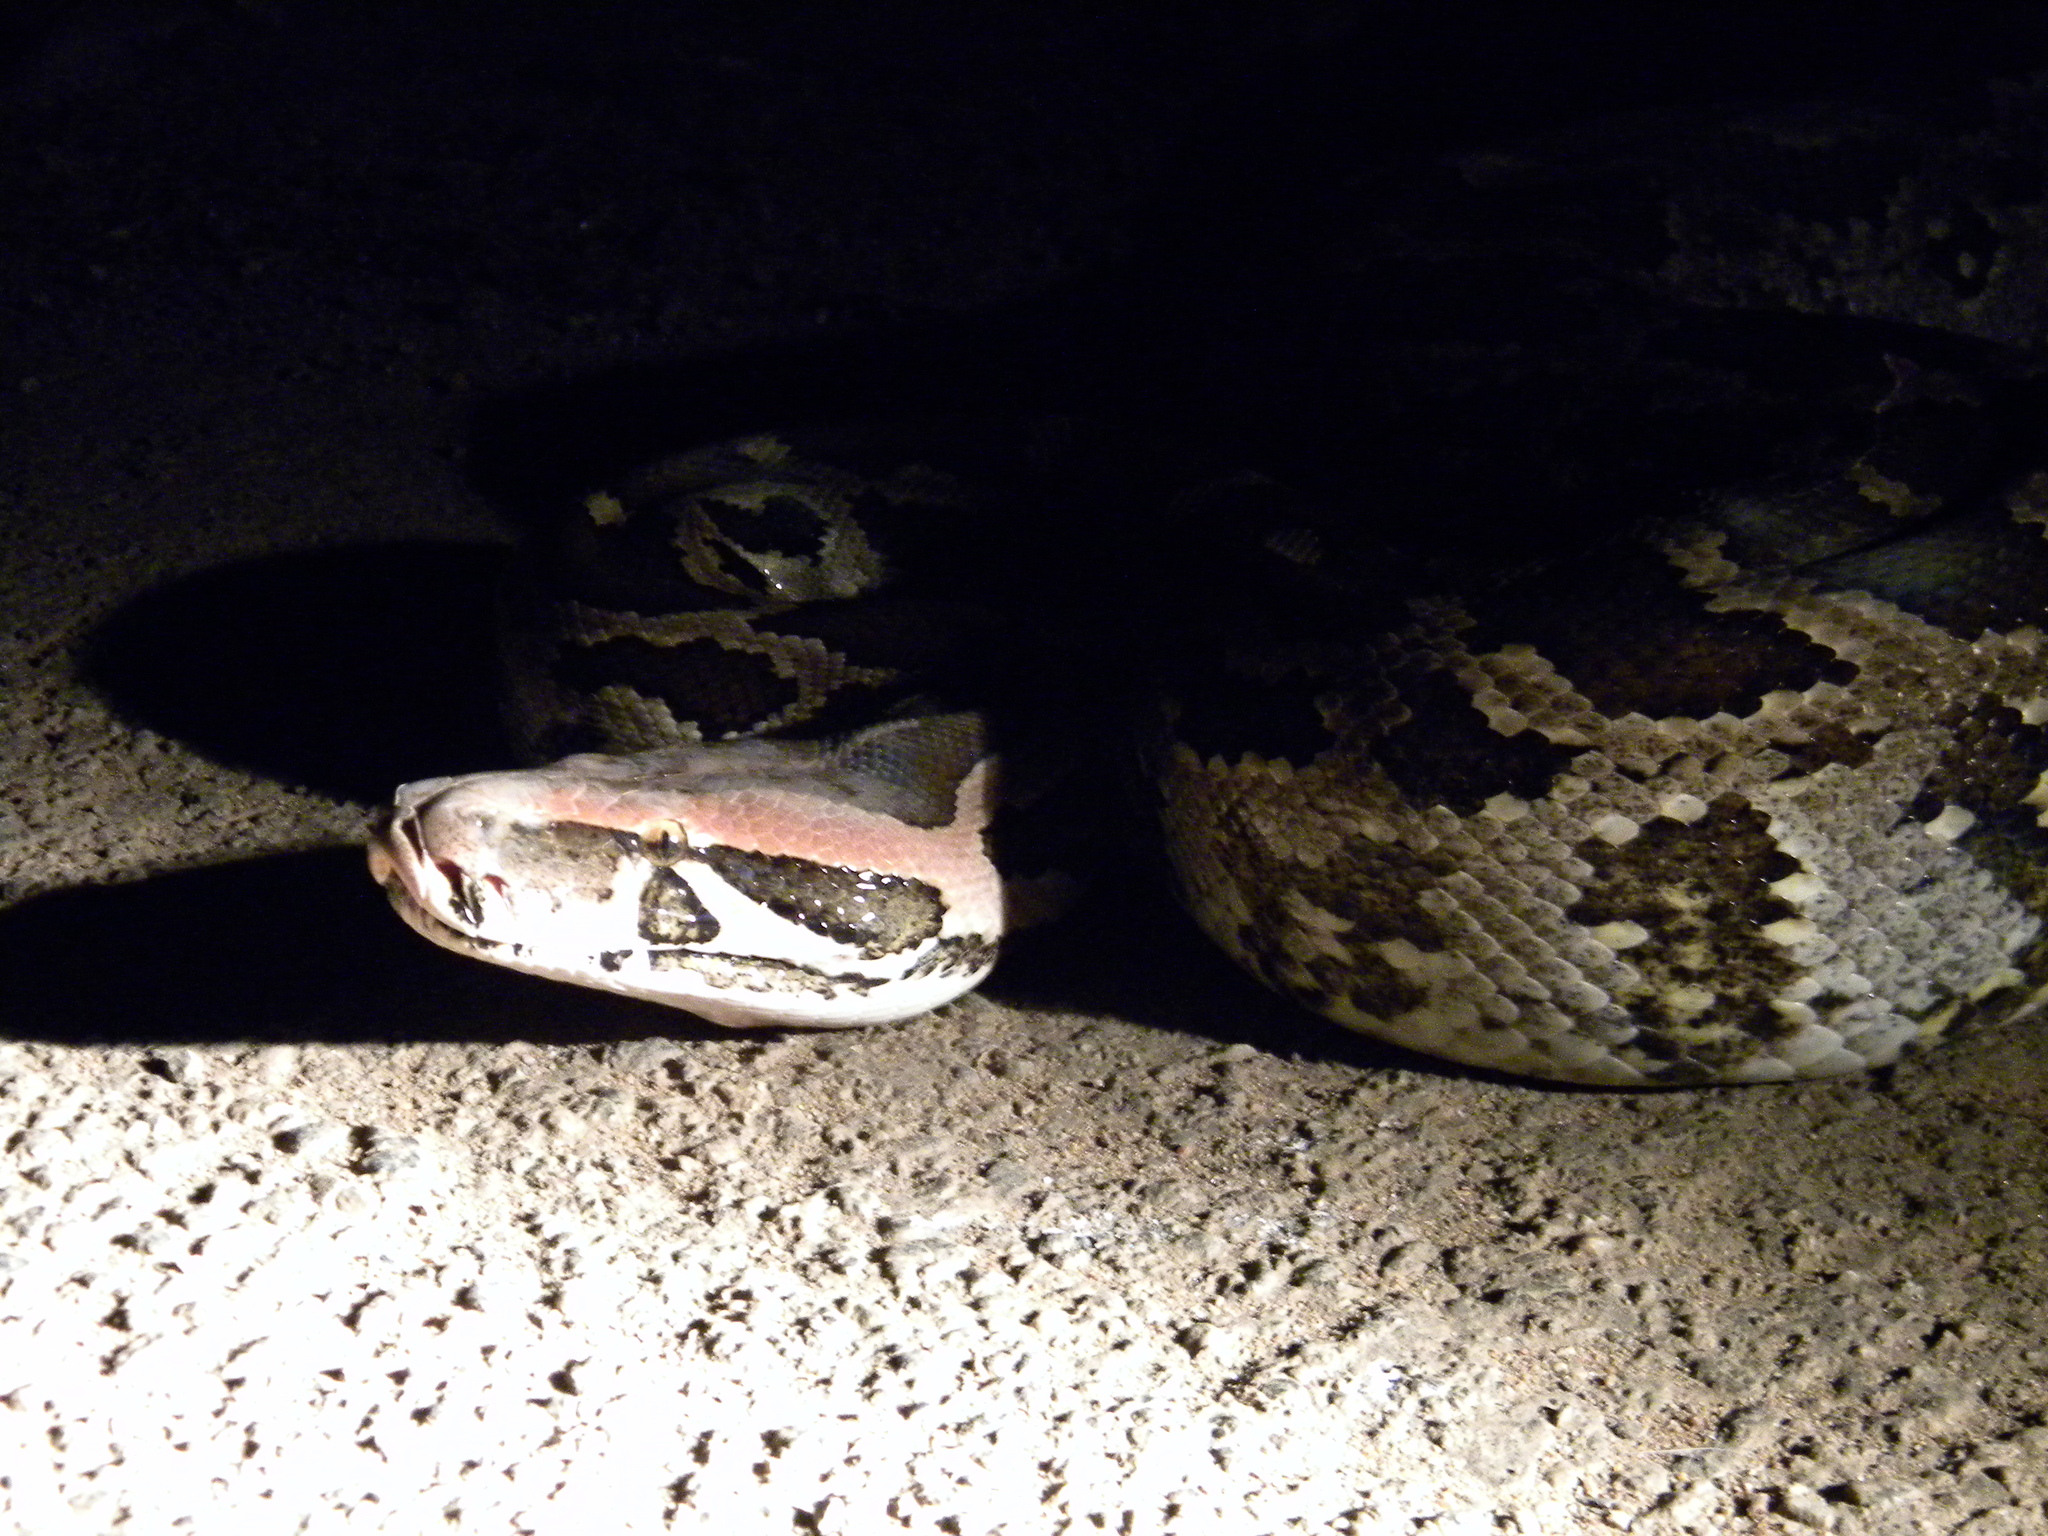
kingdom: Animalia
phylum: Chordata
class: Squamata
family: Pythonidae
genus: Python
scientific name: Python molurus
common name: Indian rock python
